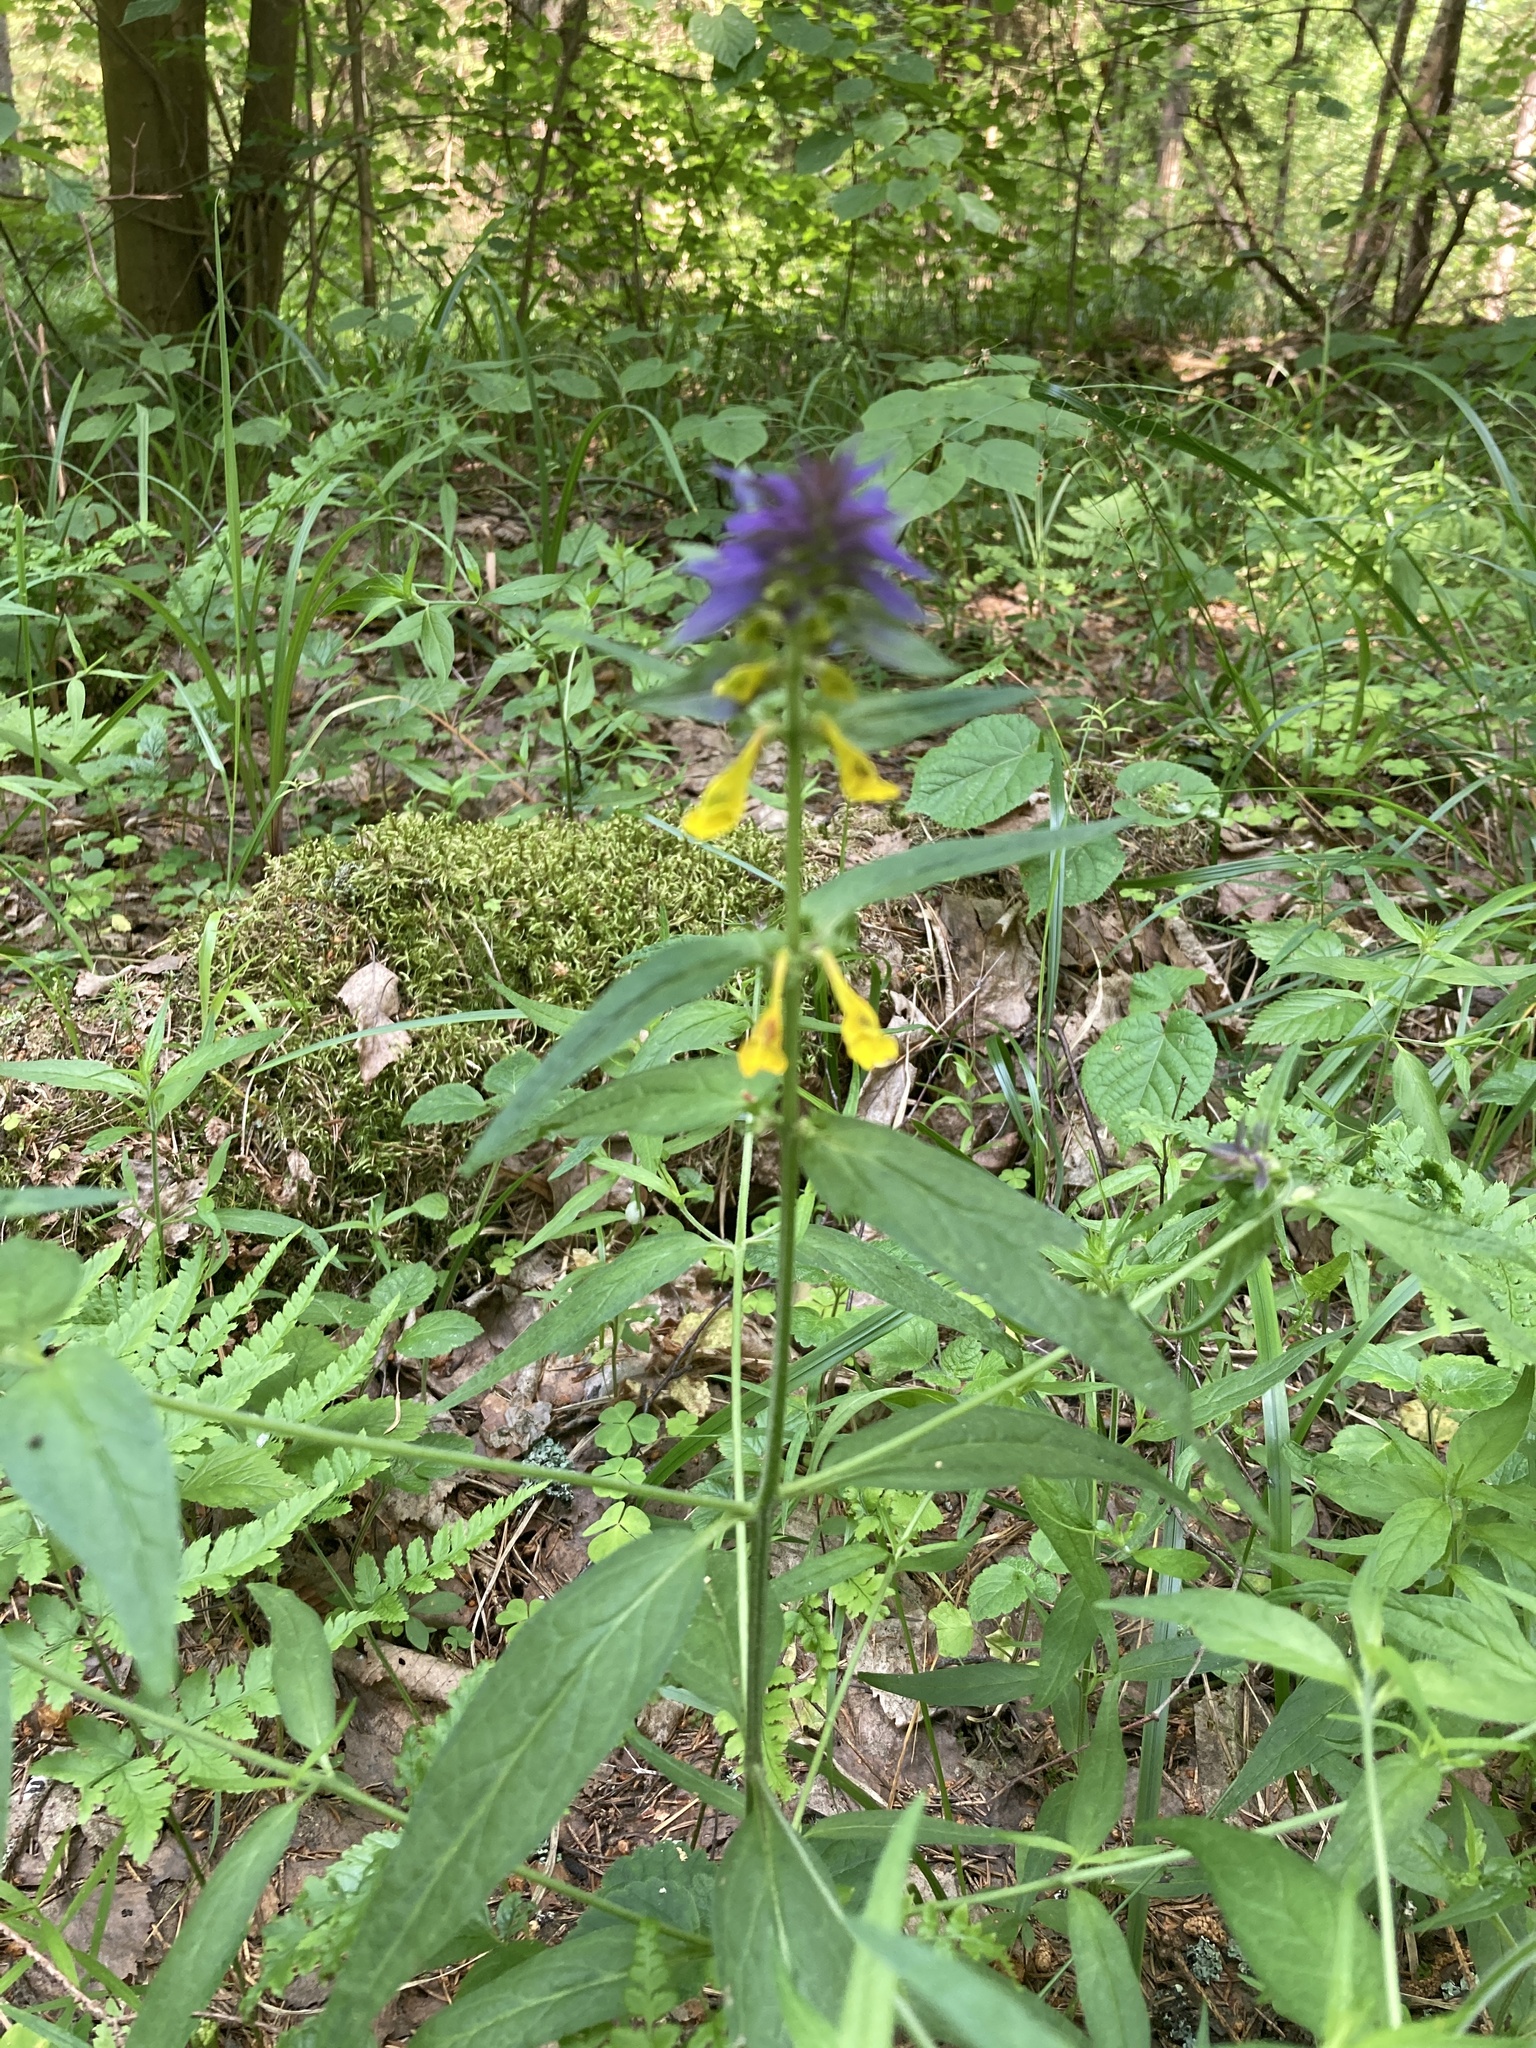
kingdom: Plantae
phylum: Tracheophyta
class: Magnoliopsida
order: Lamiales
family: Orobanchaceae
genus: Melampyrum
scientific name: Melampyrum nemorosum
